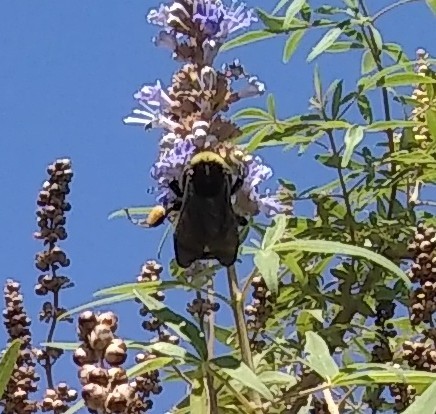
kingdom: Animalia
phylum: Arthropoda
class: Insecta
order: Hymenoptera
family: Apidae
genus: Bombus
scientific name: Bombus pensylvanicus
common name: Bumble bee
